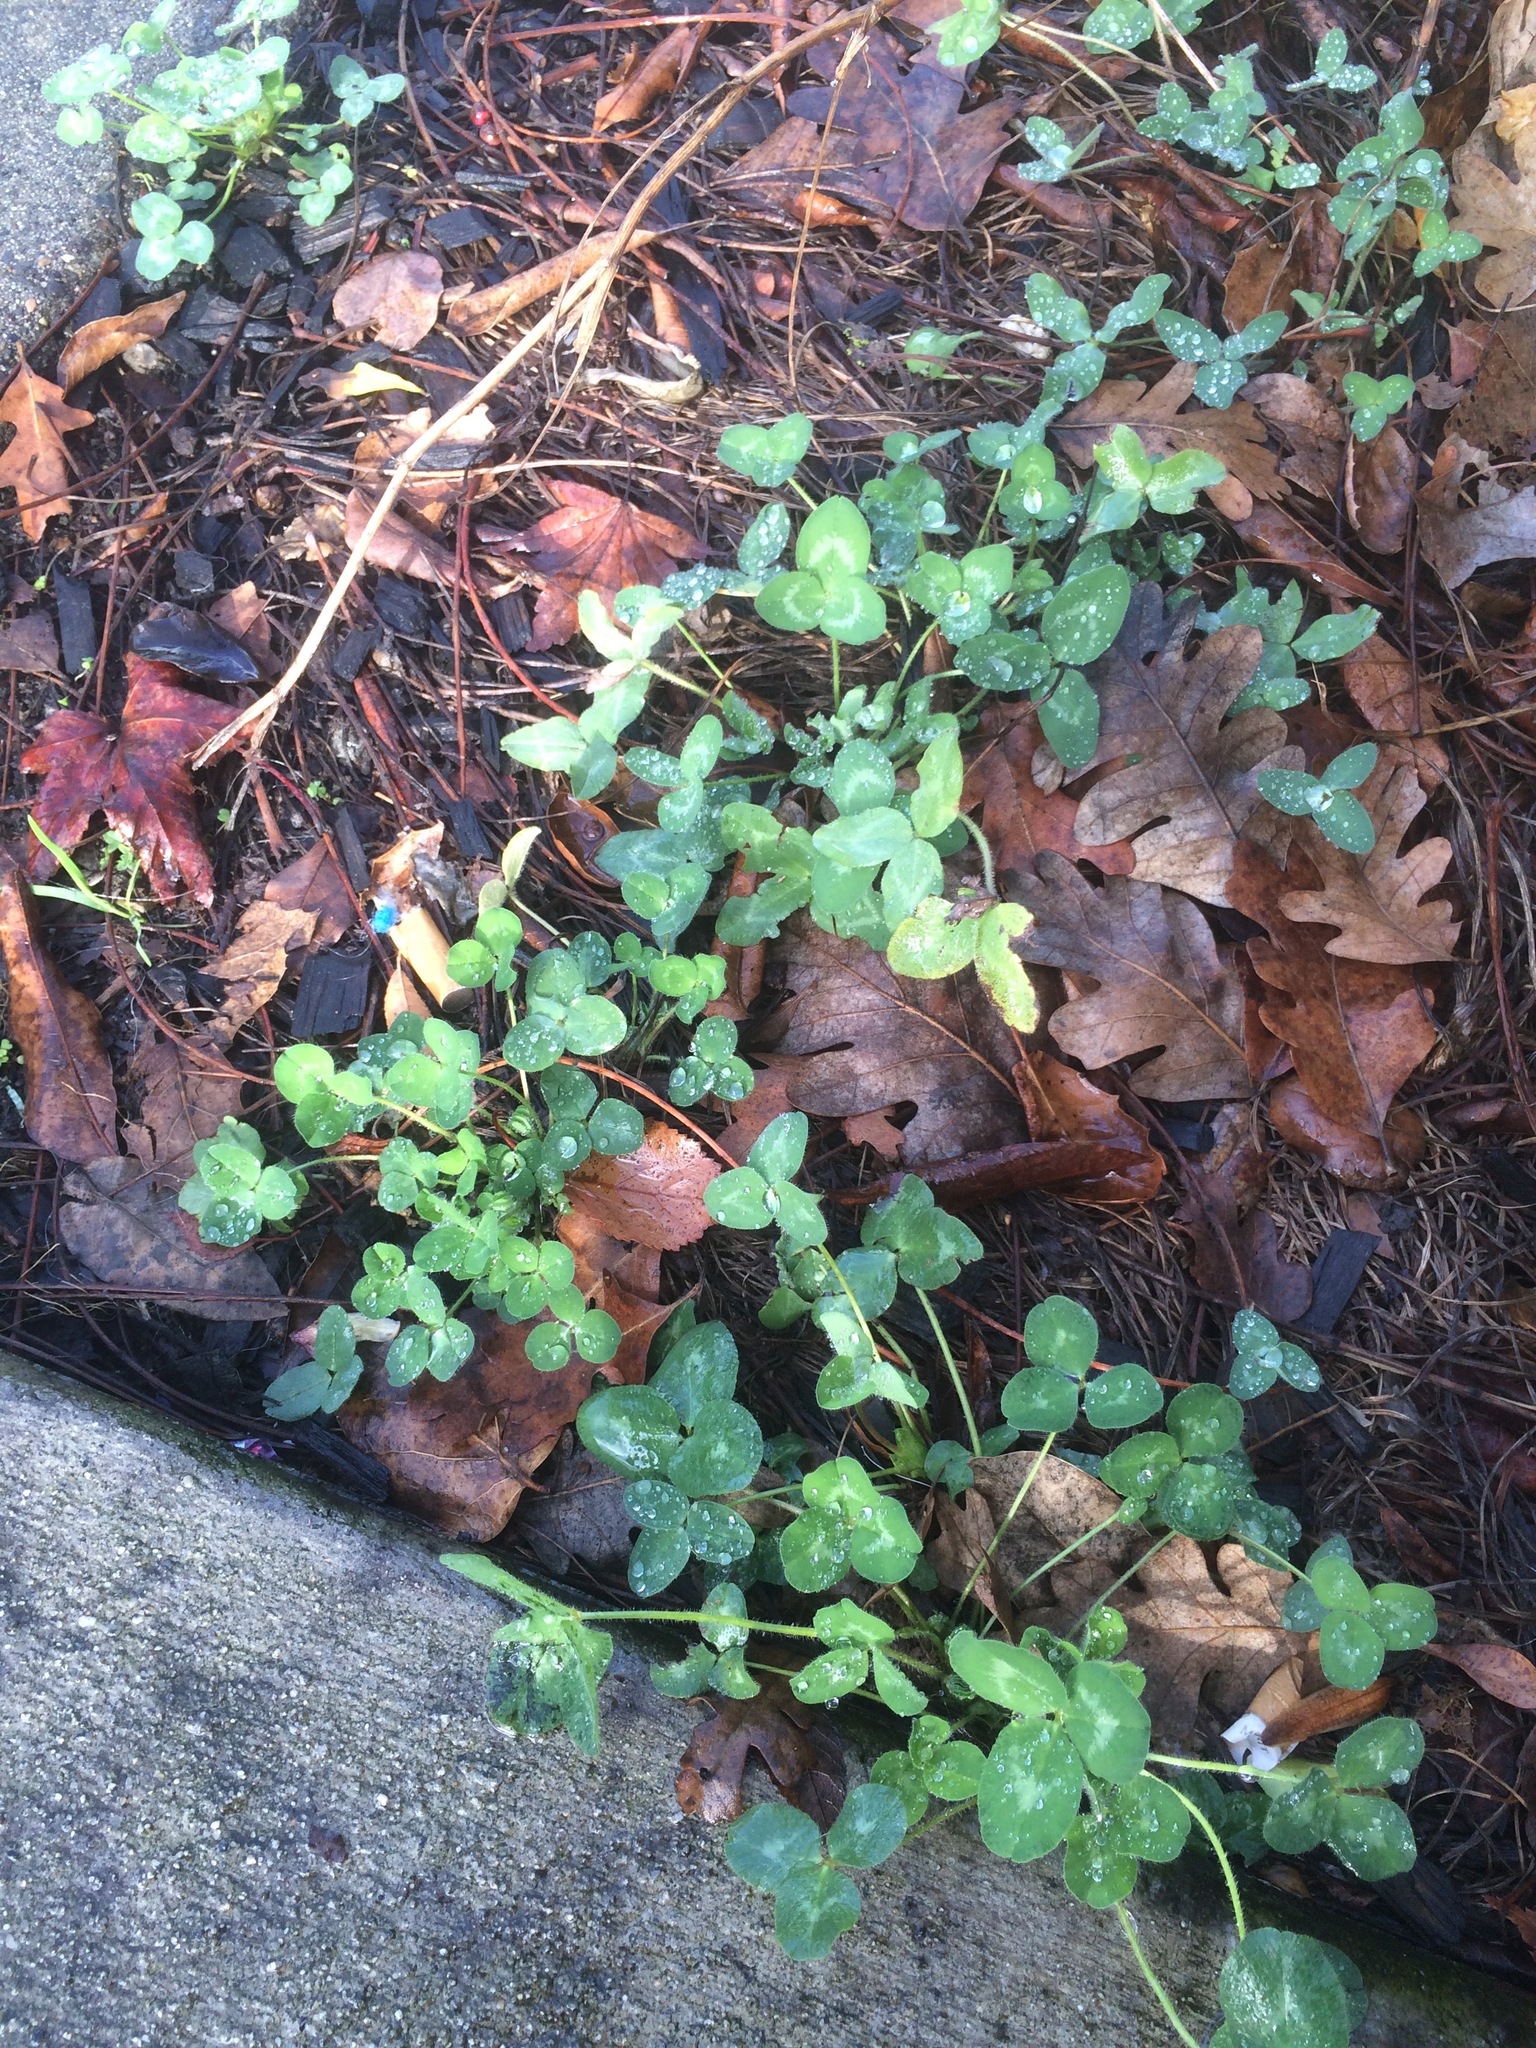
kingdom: Plantae
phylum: Tracheophyta
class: Magnoliopsida
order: Fabales
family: Fabaceae
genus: Trifolium
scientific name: Trifolium repens
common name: White clover
